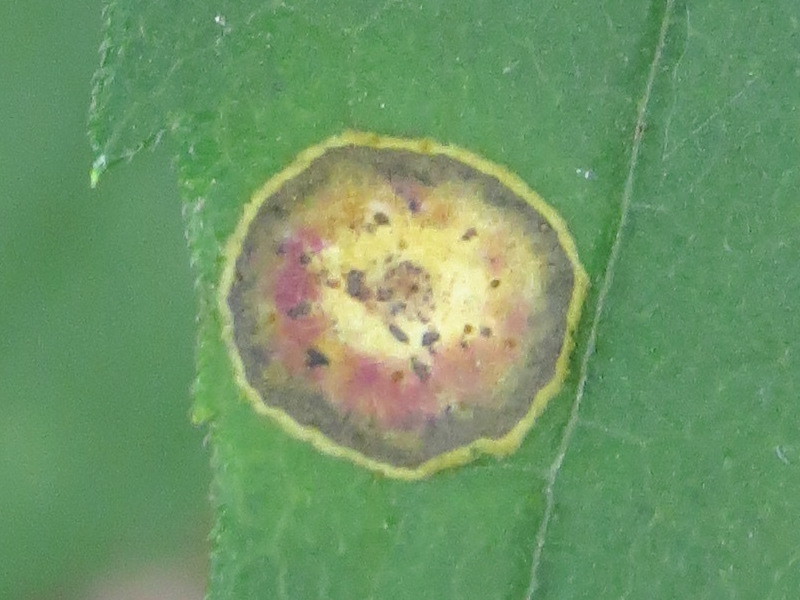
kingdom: Animalia
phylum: Arthropoda
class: Insecta
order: Diptera
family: Cecidomyiidae
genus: Asteromyia
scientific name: Asteromyia carbonifera
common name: Carbonifera goldenrod gall midge
